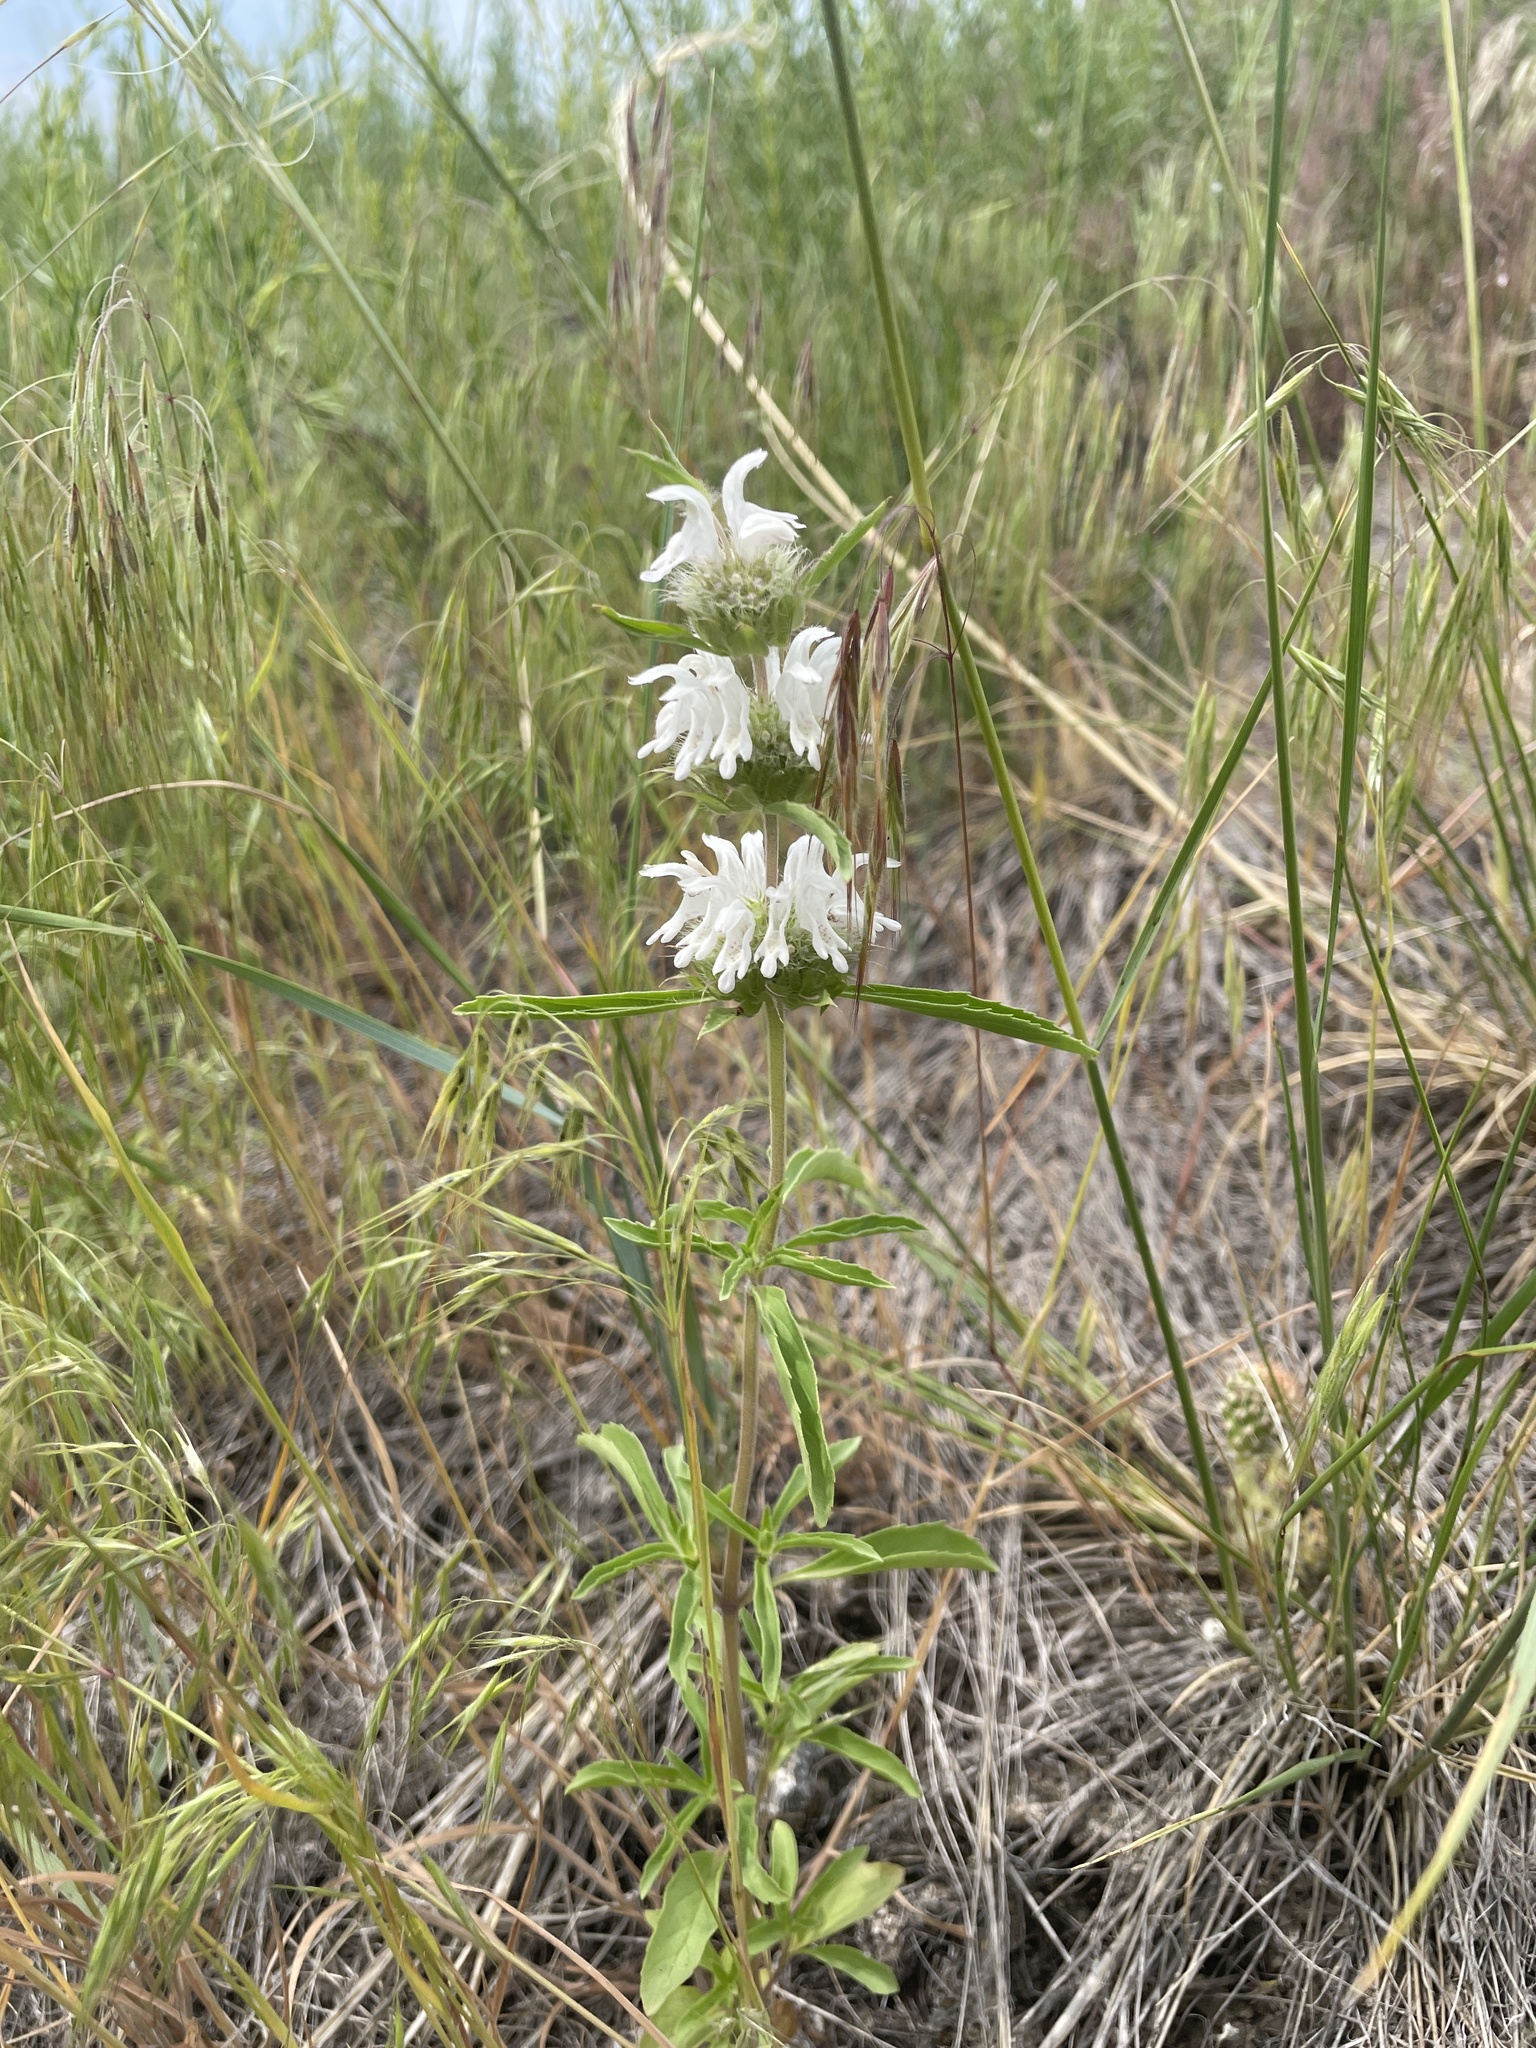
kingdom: Plantae
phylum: Tracheophyta
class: Magnoliopsida
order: Lamiales
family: Lamiaceae
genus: Monarda
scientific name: Monarda pectinata
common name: Plains beebalm
